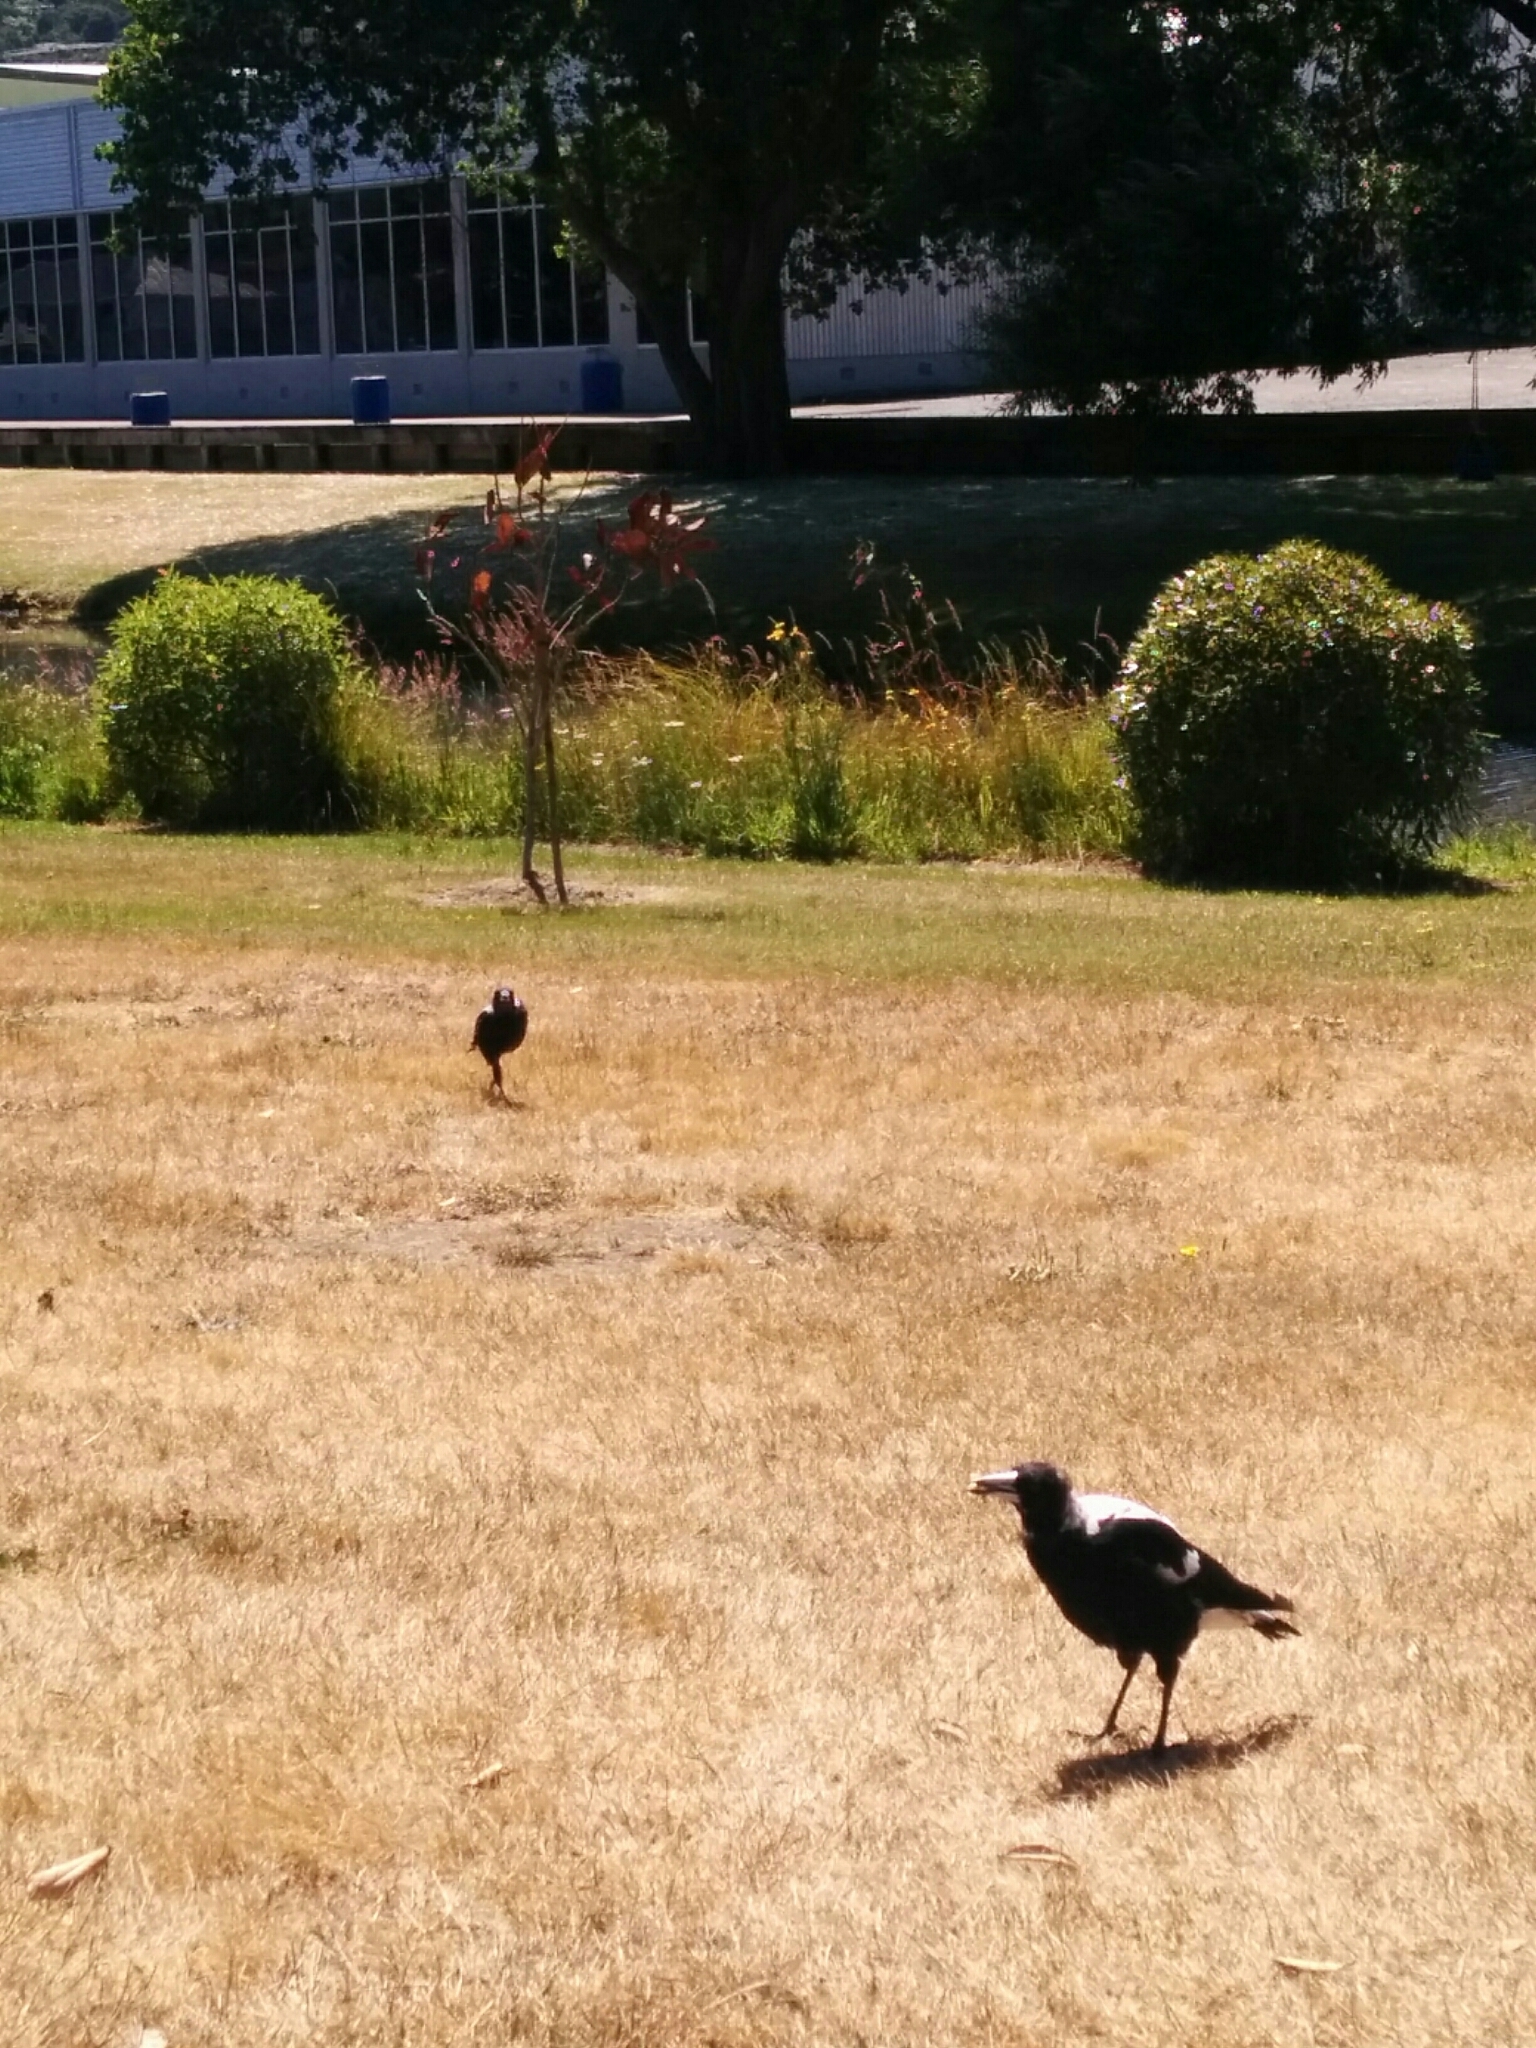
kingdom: Animalia
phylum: Chordata
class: Aves
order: Passeriformes
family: Cracticidae
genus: Gymnorhina
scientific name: Gymnorhina tibicen
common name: Australian magpie
